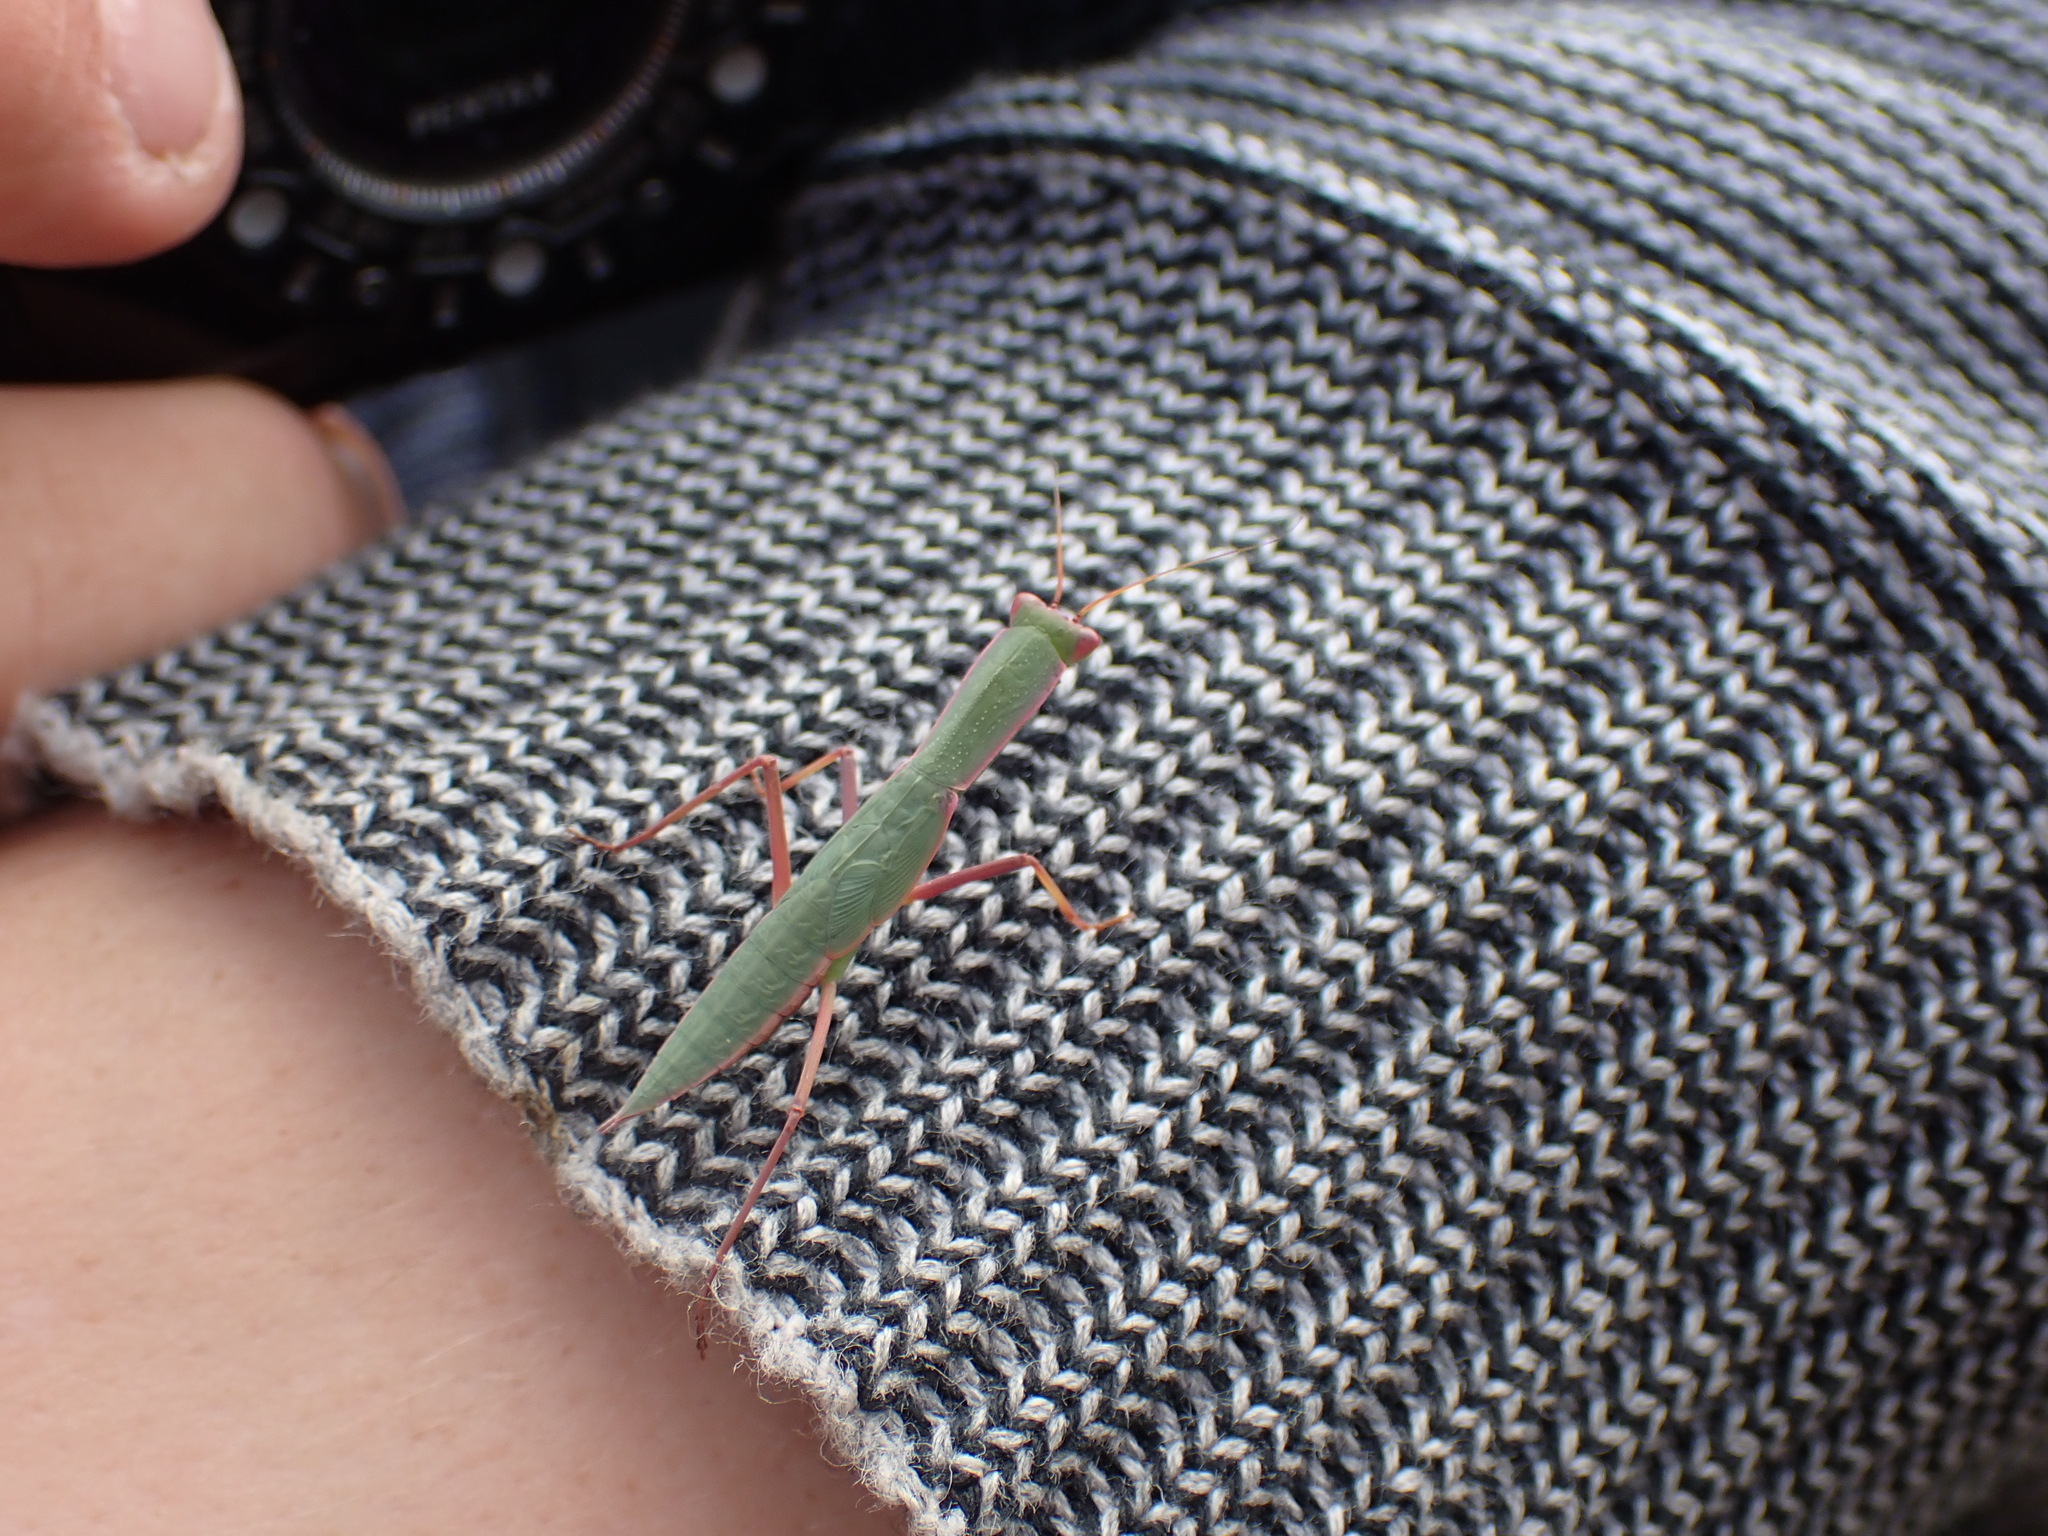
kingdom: Animalia
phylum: Arthropoda
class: Insecta
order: Mantodea
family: Mantidae
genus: Orthodera
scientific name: Orthodera ministralis
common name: Mantis
